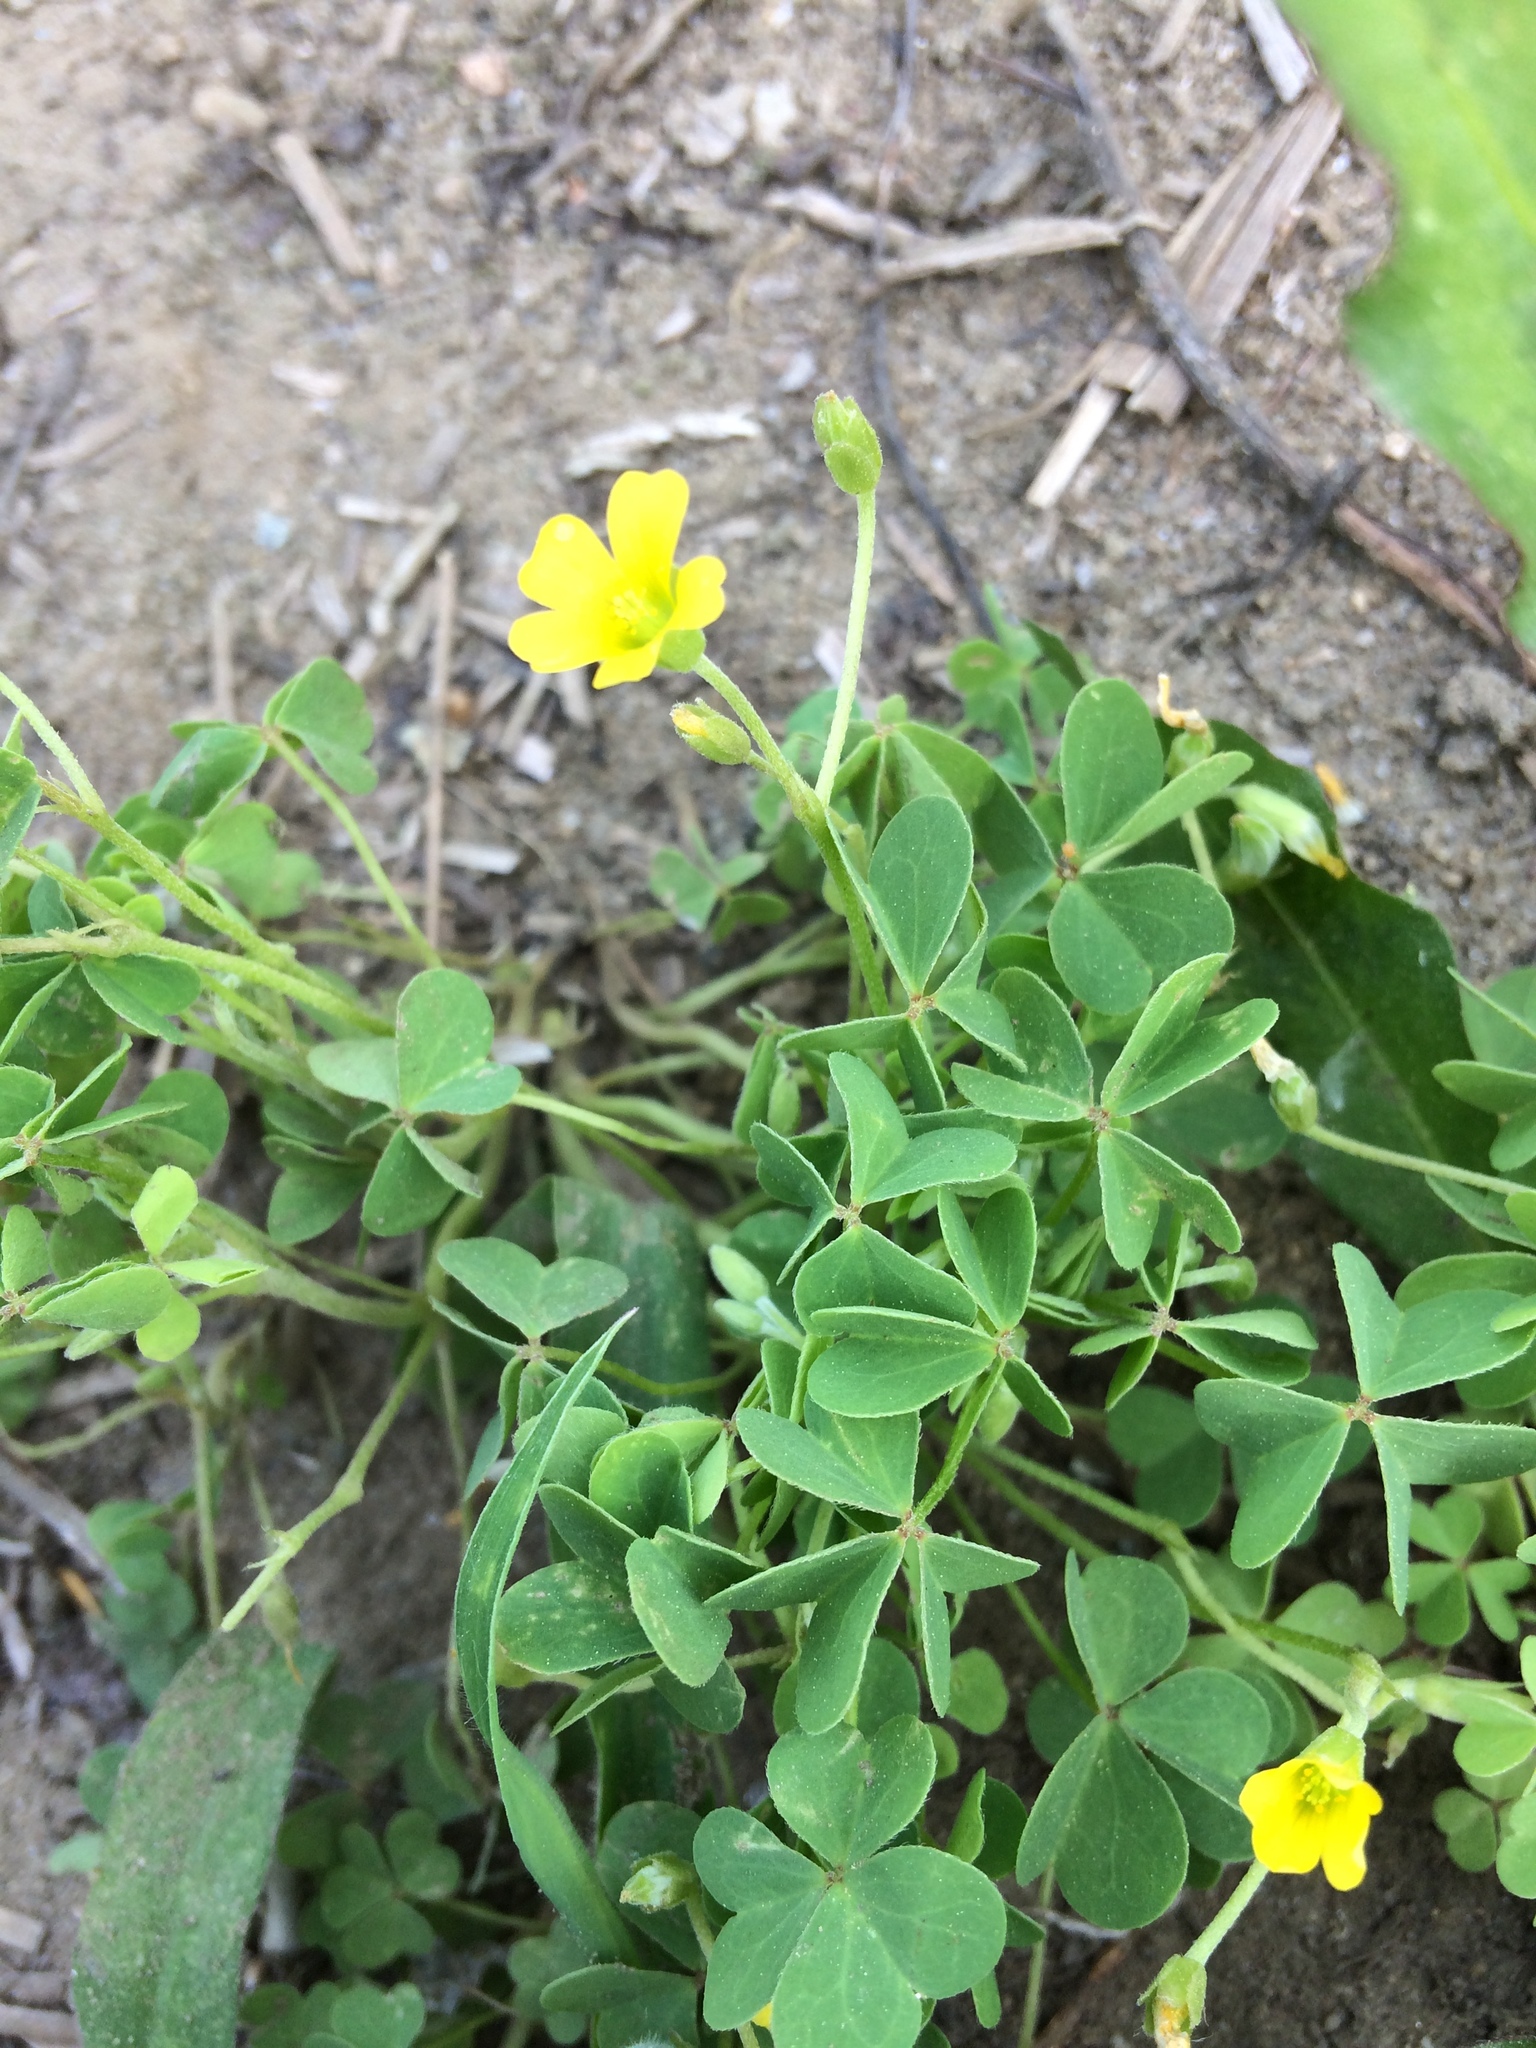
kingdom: Plantae
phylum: Tracheophyta
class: Magnoliopsida
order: Oxalidales
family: Oxalidaceae
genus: Oxalis
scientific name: Oxalis dillenii
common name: Sussex yellow-sorrel
